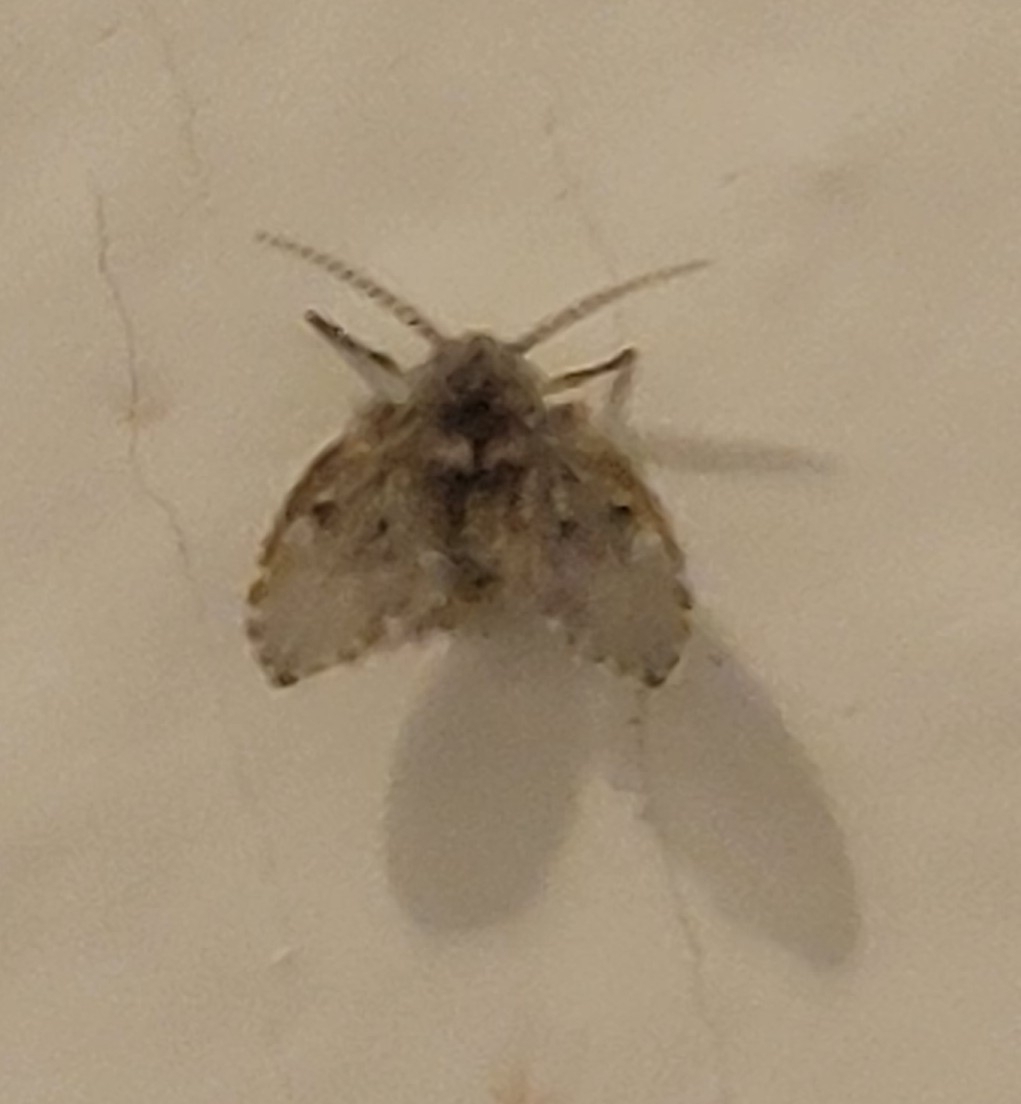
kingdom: Animalia
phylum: Arthropoda
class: Insecta
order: Diptera
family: Psychodidae
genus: Clogmia
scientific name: Clogmia albipunctatus
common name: White-spotted moth fly
